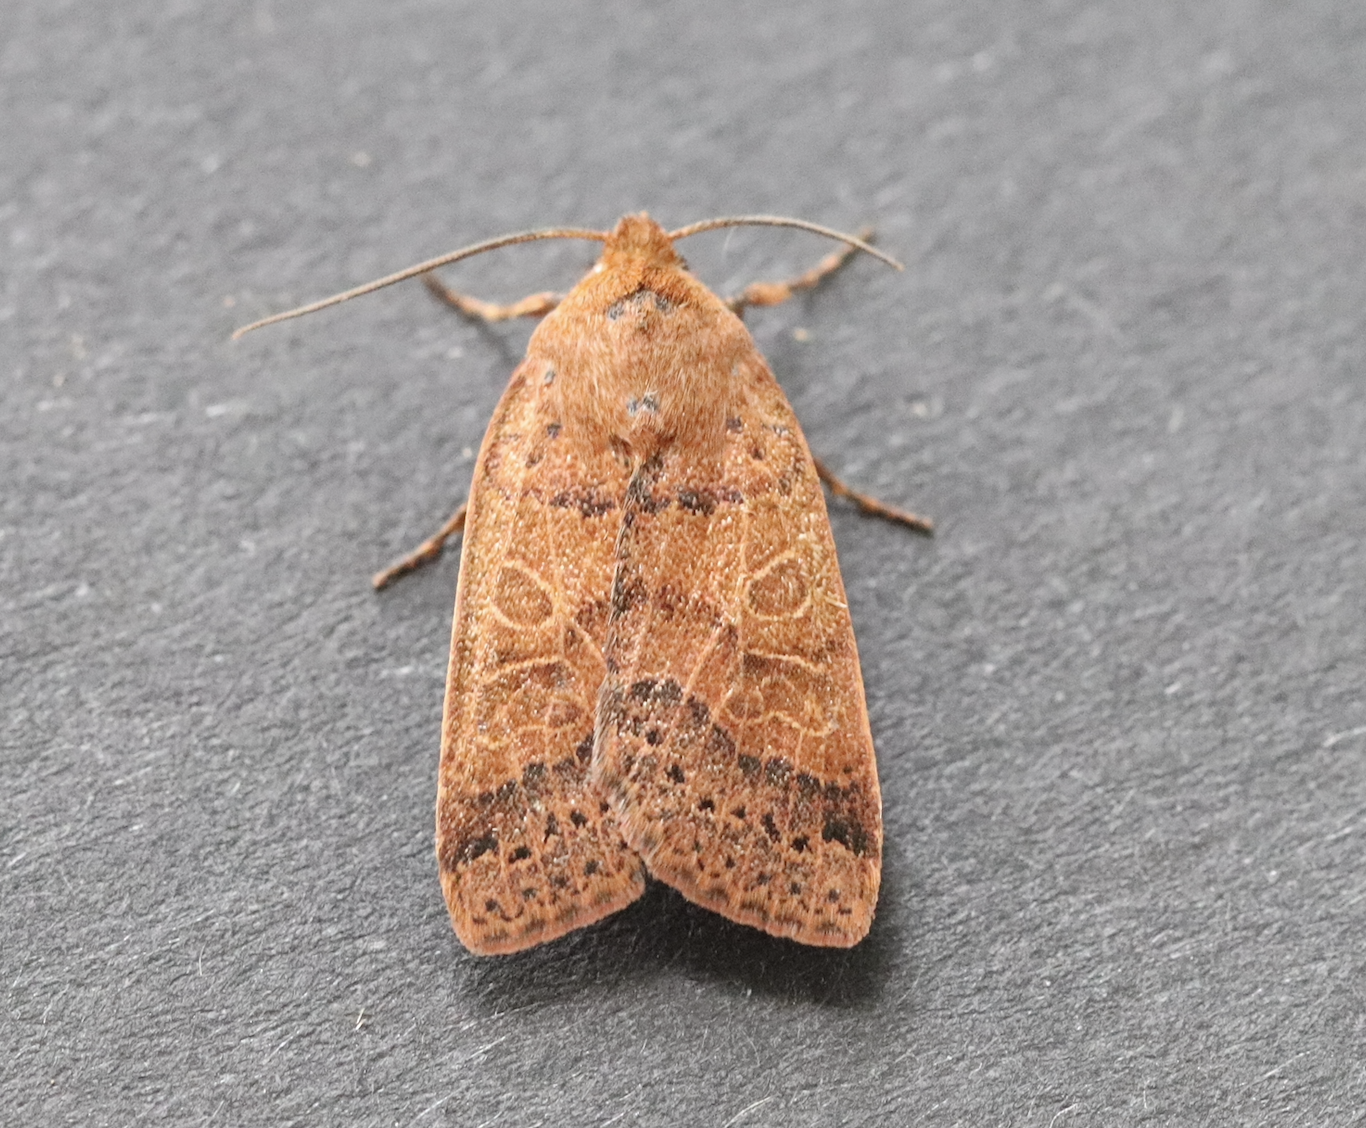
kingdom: Animalia
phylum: Arthropoda
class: Insecta
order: Lepidoptera
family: Noctuidae
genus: Agrochola
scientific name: Agrochola nitida
